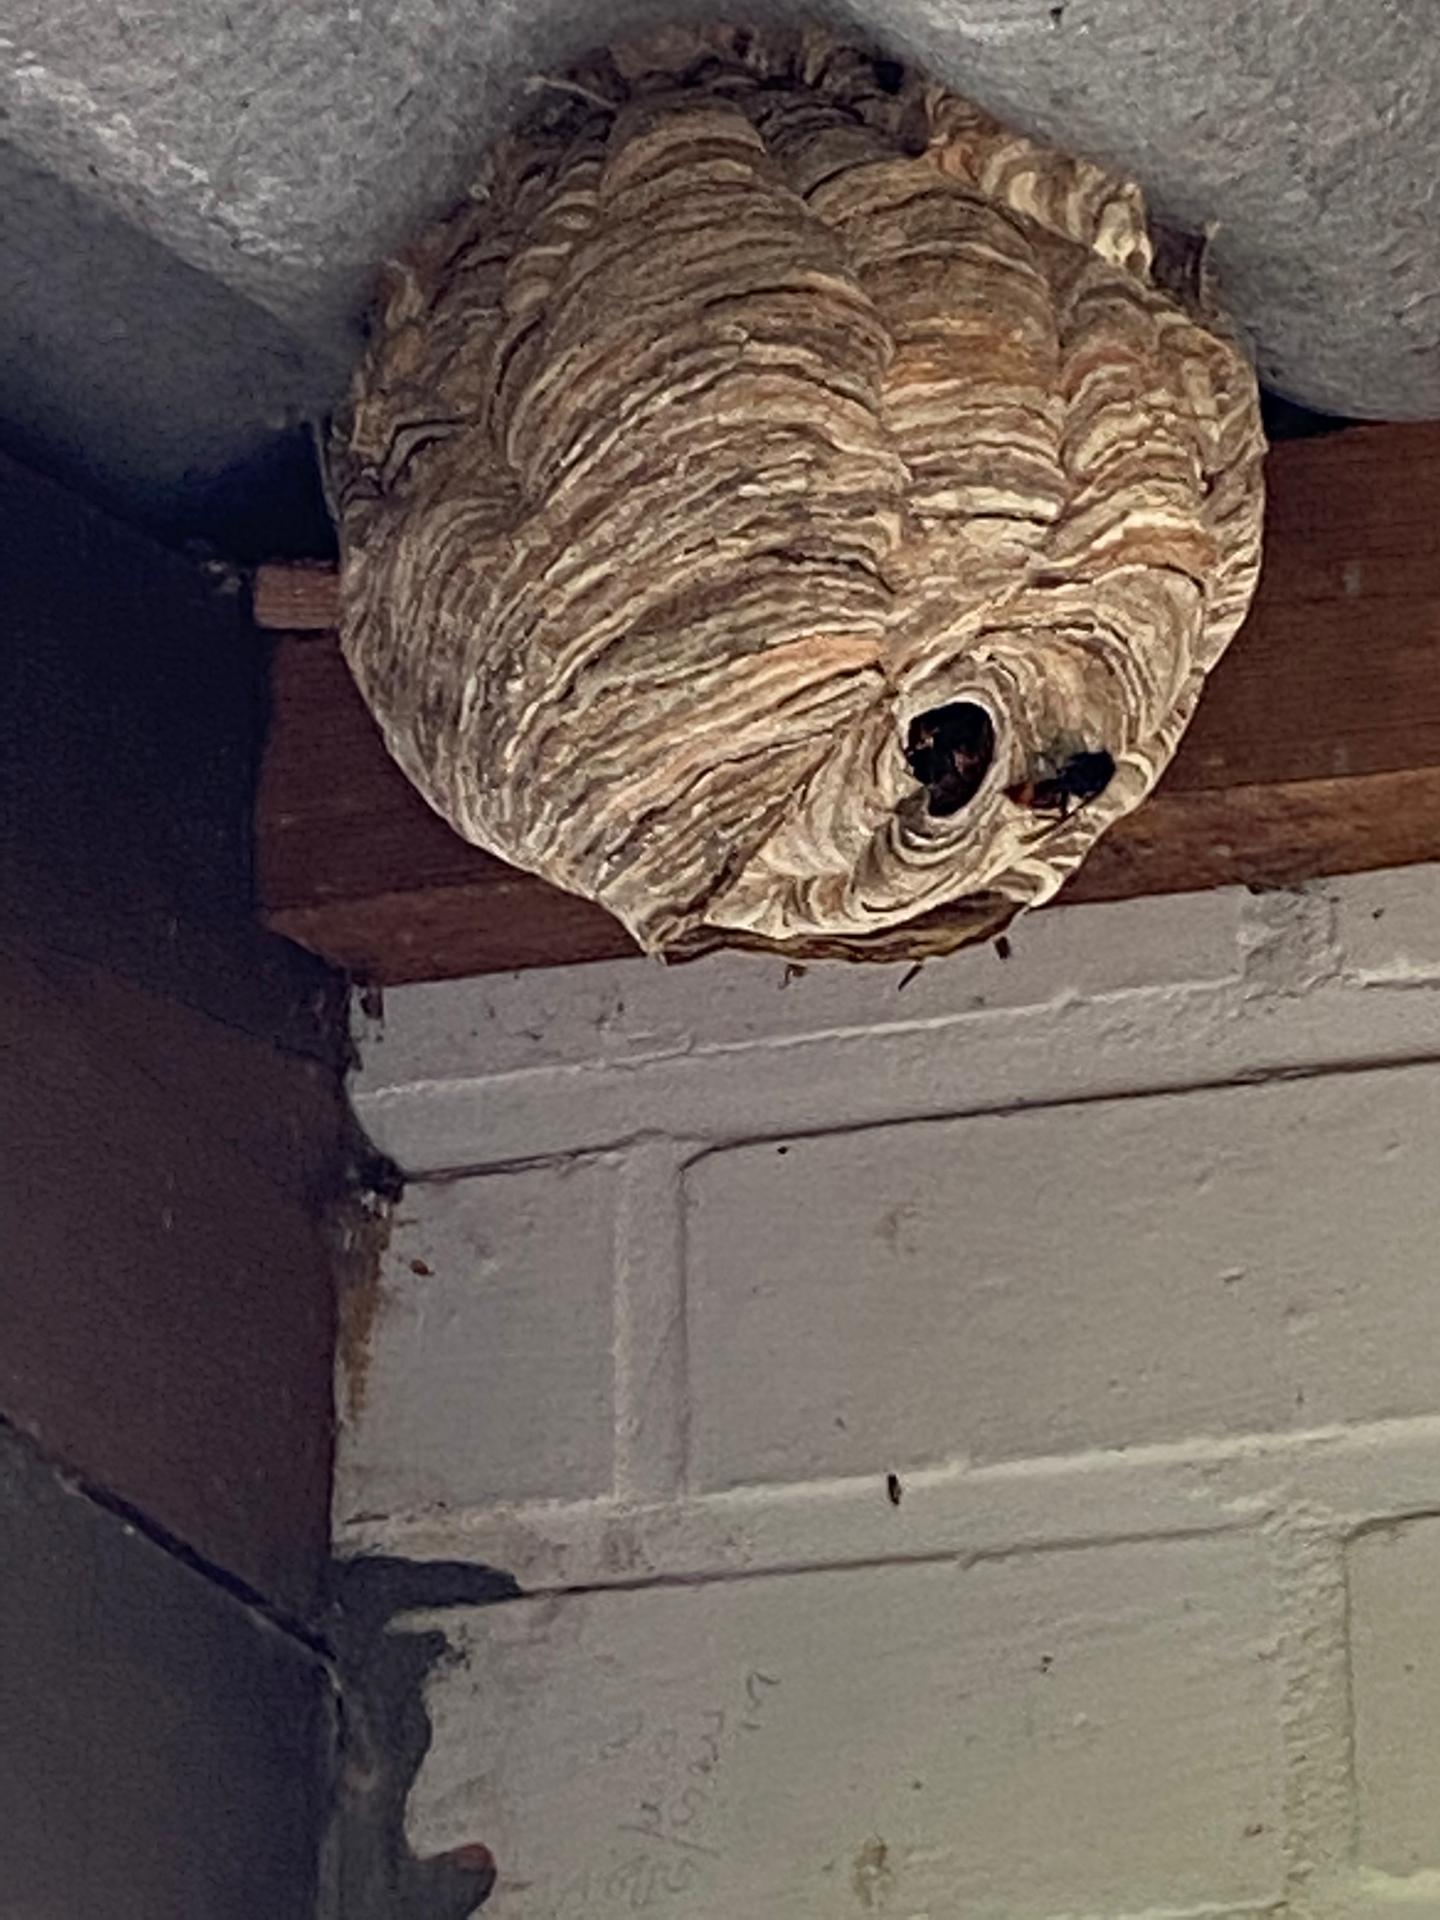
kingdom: Animalia
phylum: Arthropoda
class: Insecta
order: Hymenoptera
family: Vespidae
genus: Vespa
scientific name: Vespa velutina
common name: Asian hornet
